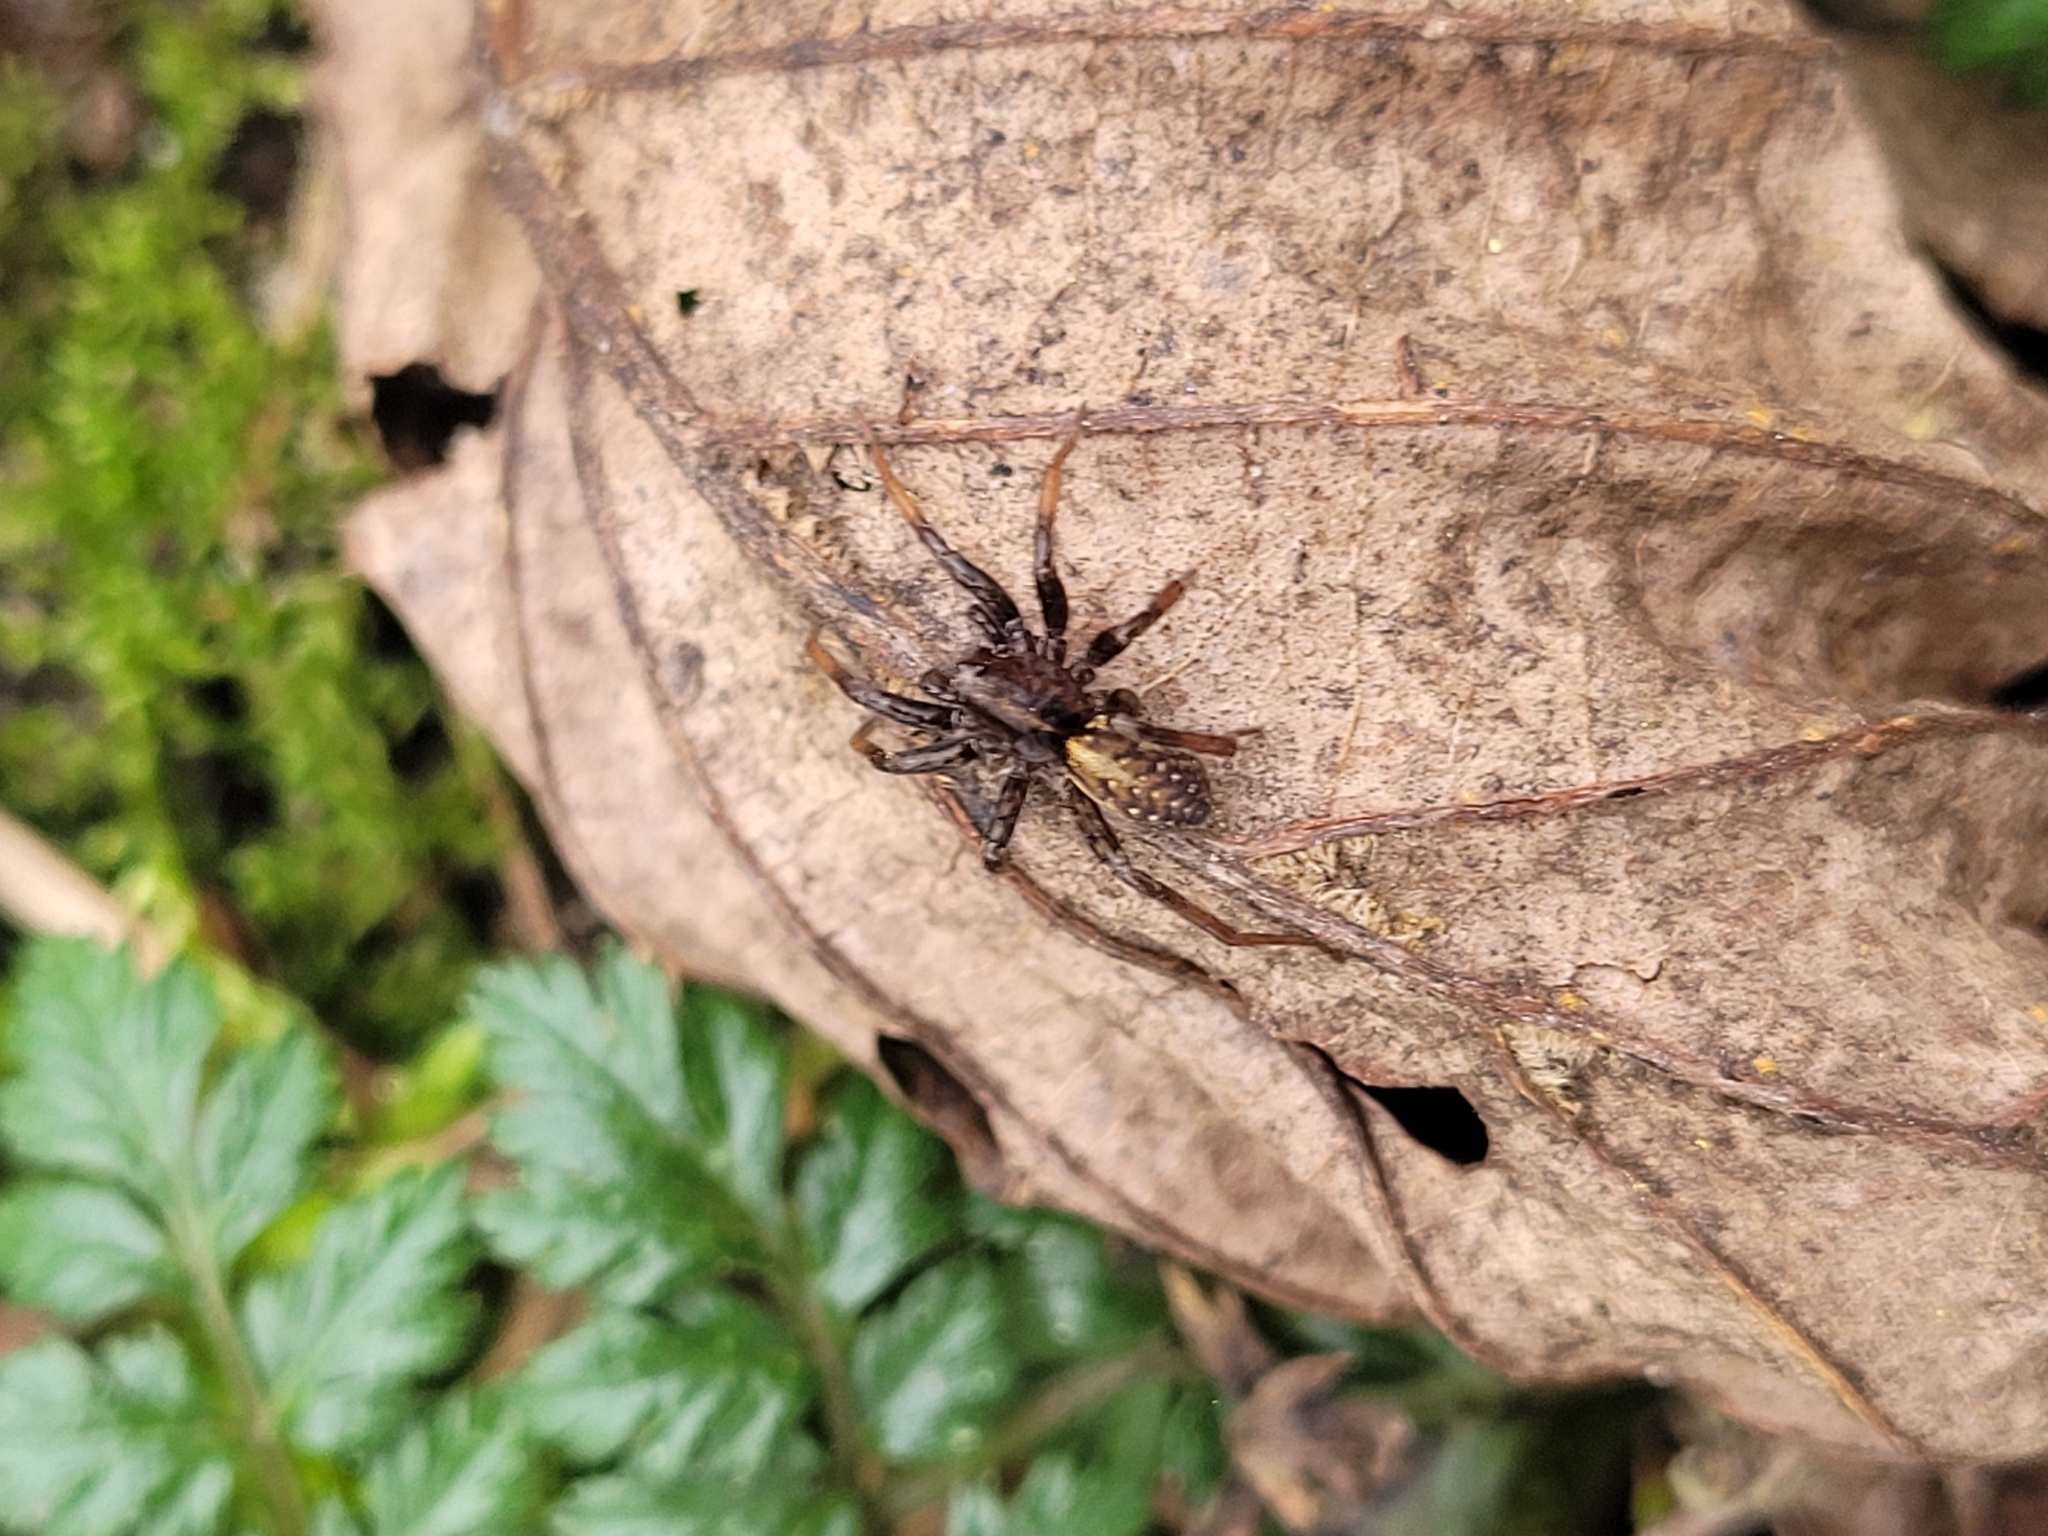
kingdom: Animalia
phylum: Arthropoda
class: Arachnida
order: Araneae
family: Lycosidae
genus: Hygrolycosa
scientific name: Hygrolycosa rubrofasciata
